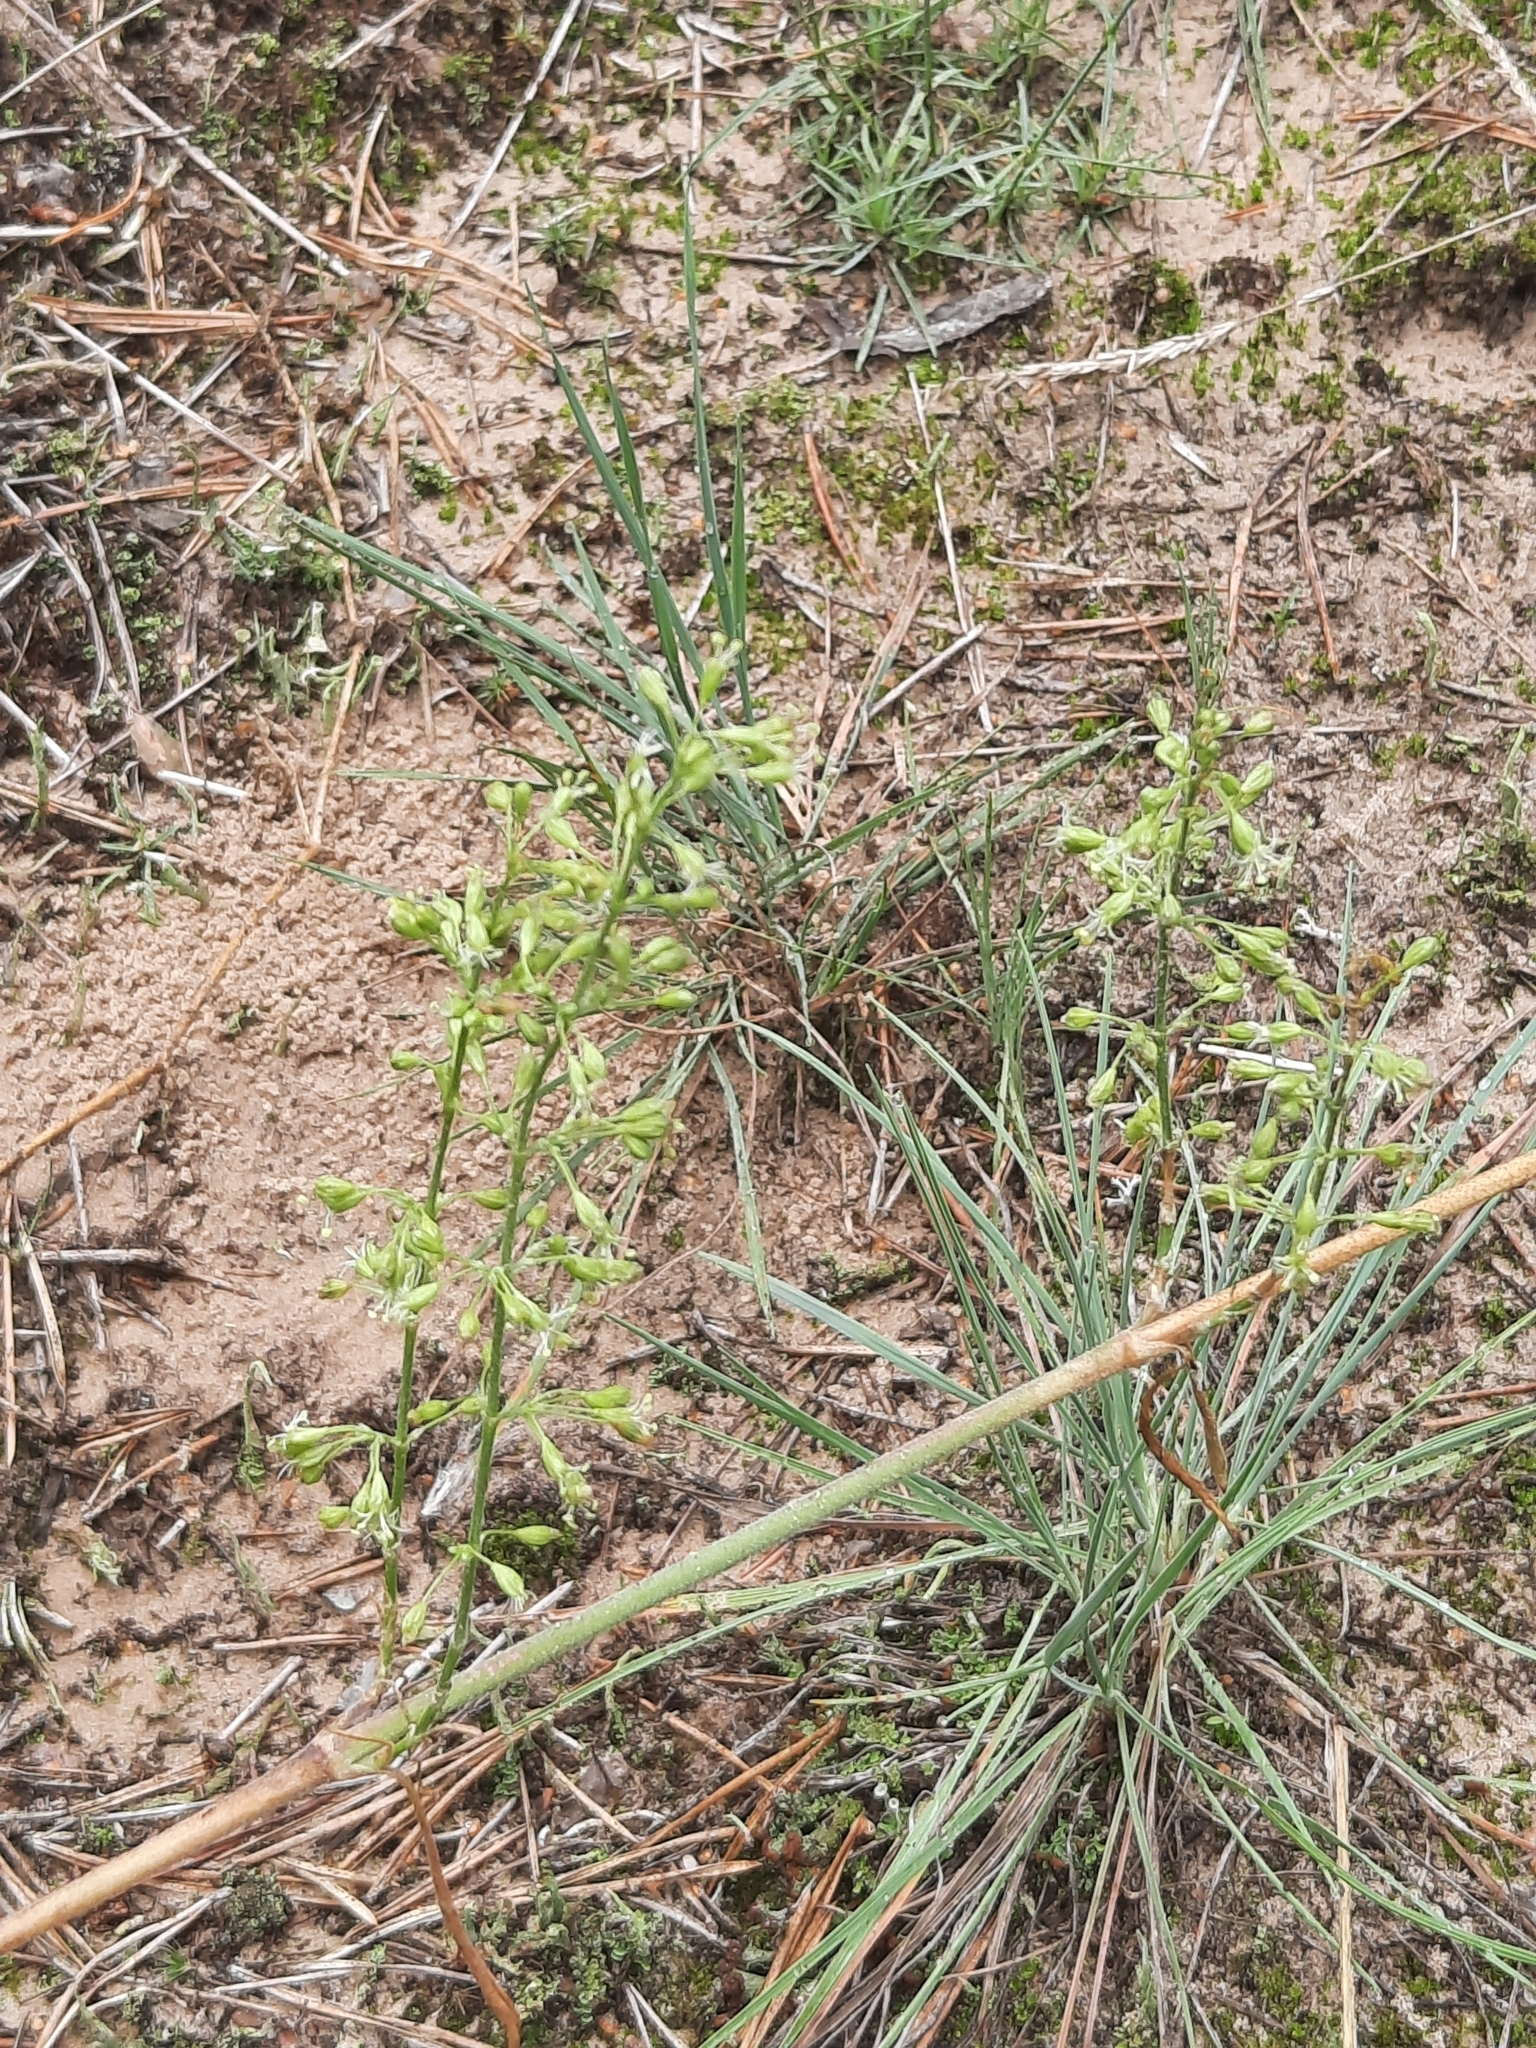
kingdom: Plantae
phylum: Tracheophyta
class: Magnoliopsida
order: Caryophyllales
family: Caryophyllaceae
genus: Silene
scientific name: Silene borysthenica
